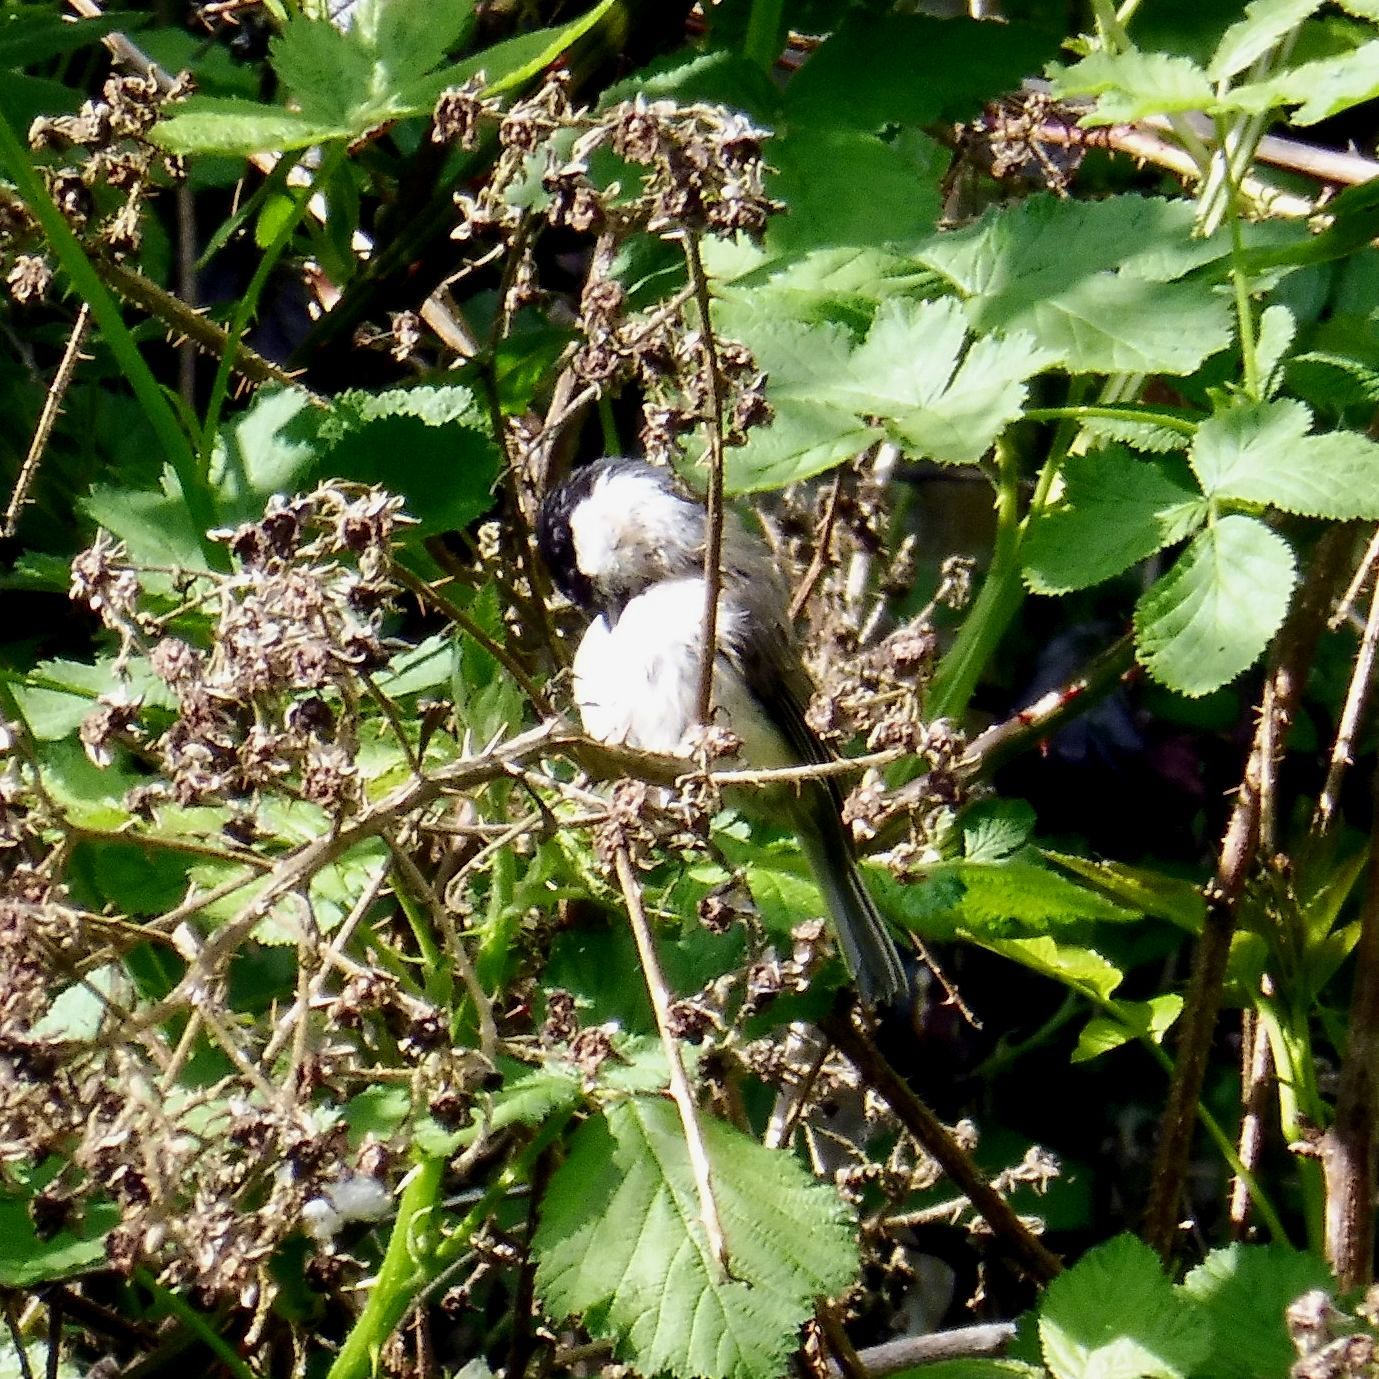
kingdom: Animalia
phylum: Chordata
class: Aves
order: Passeriformes
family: Paridae
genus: Poecile
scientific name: Poecile palustris
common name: Marsh tit
